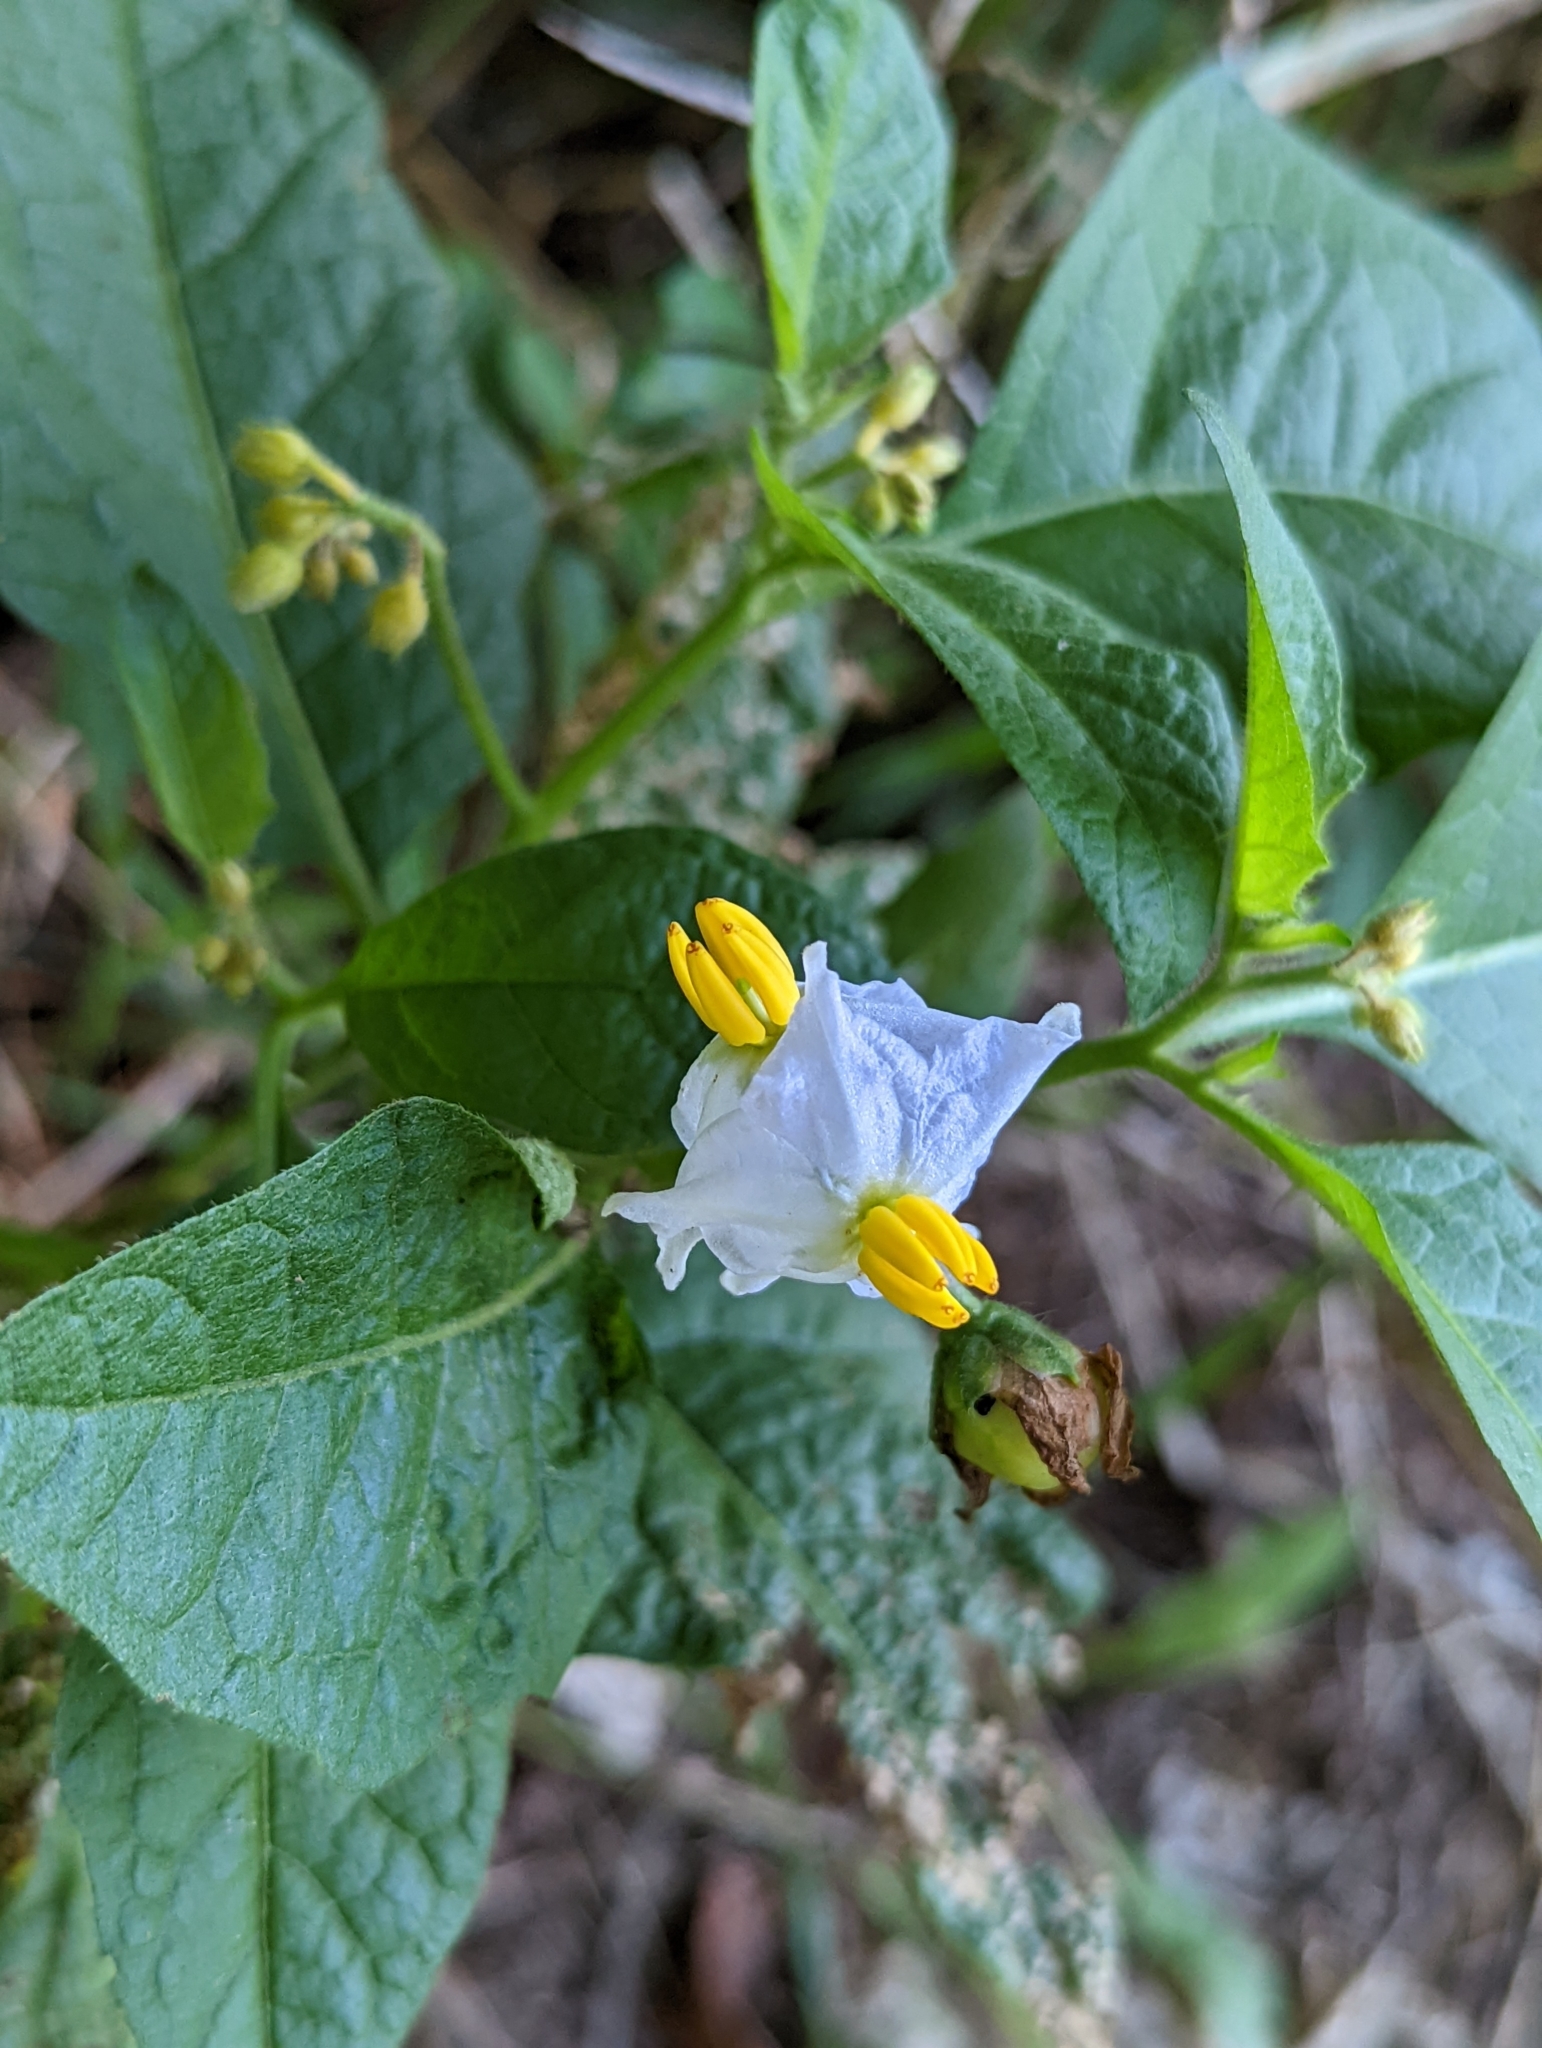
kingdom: Plantae
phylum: Tracheophyta
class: Magnoliopsida
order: Solanales
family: Solanaceae
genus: Solanum
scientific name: Solanum carolinense
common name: Horse-nettle
